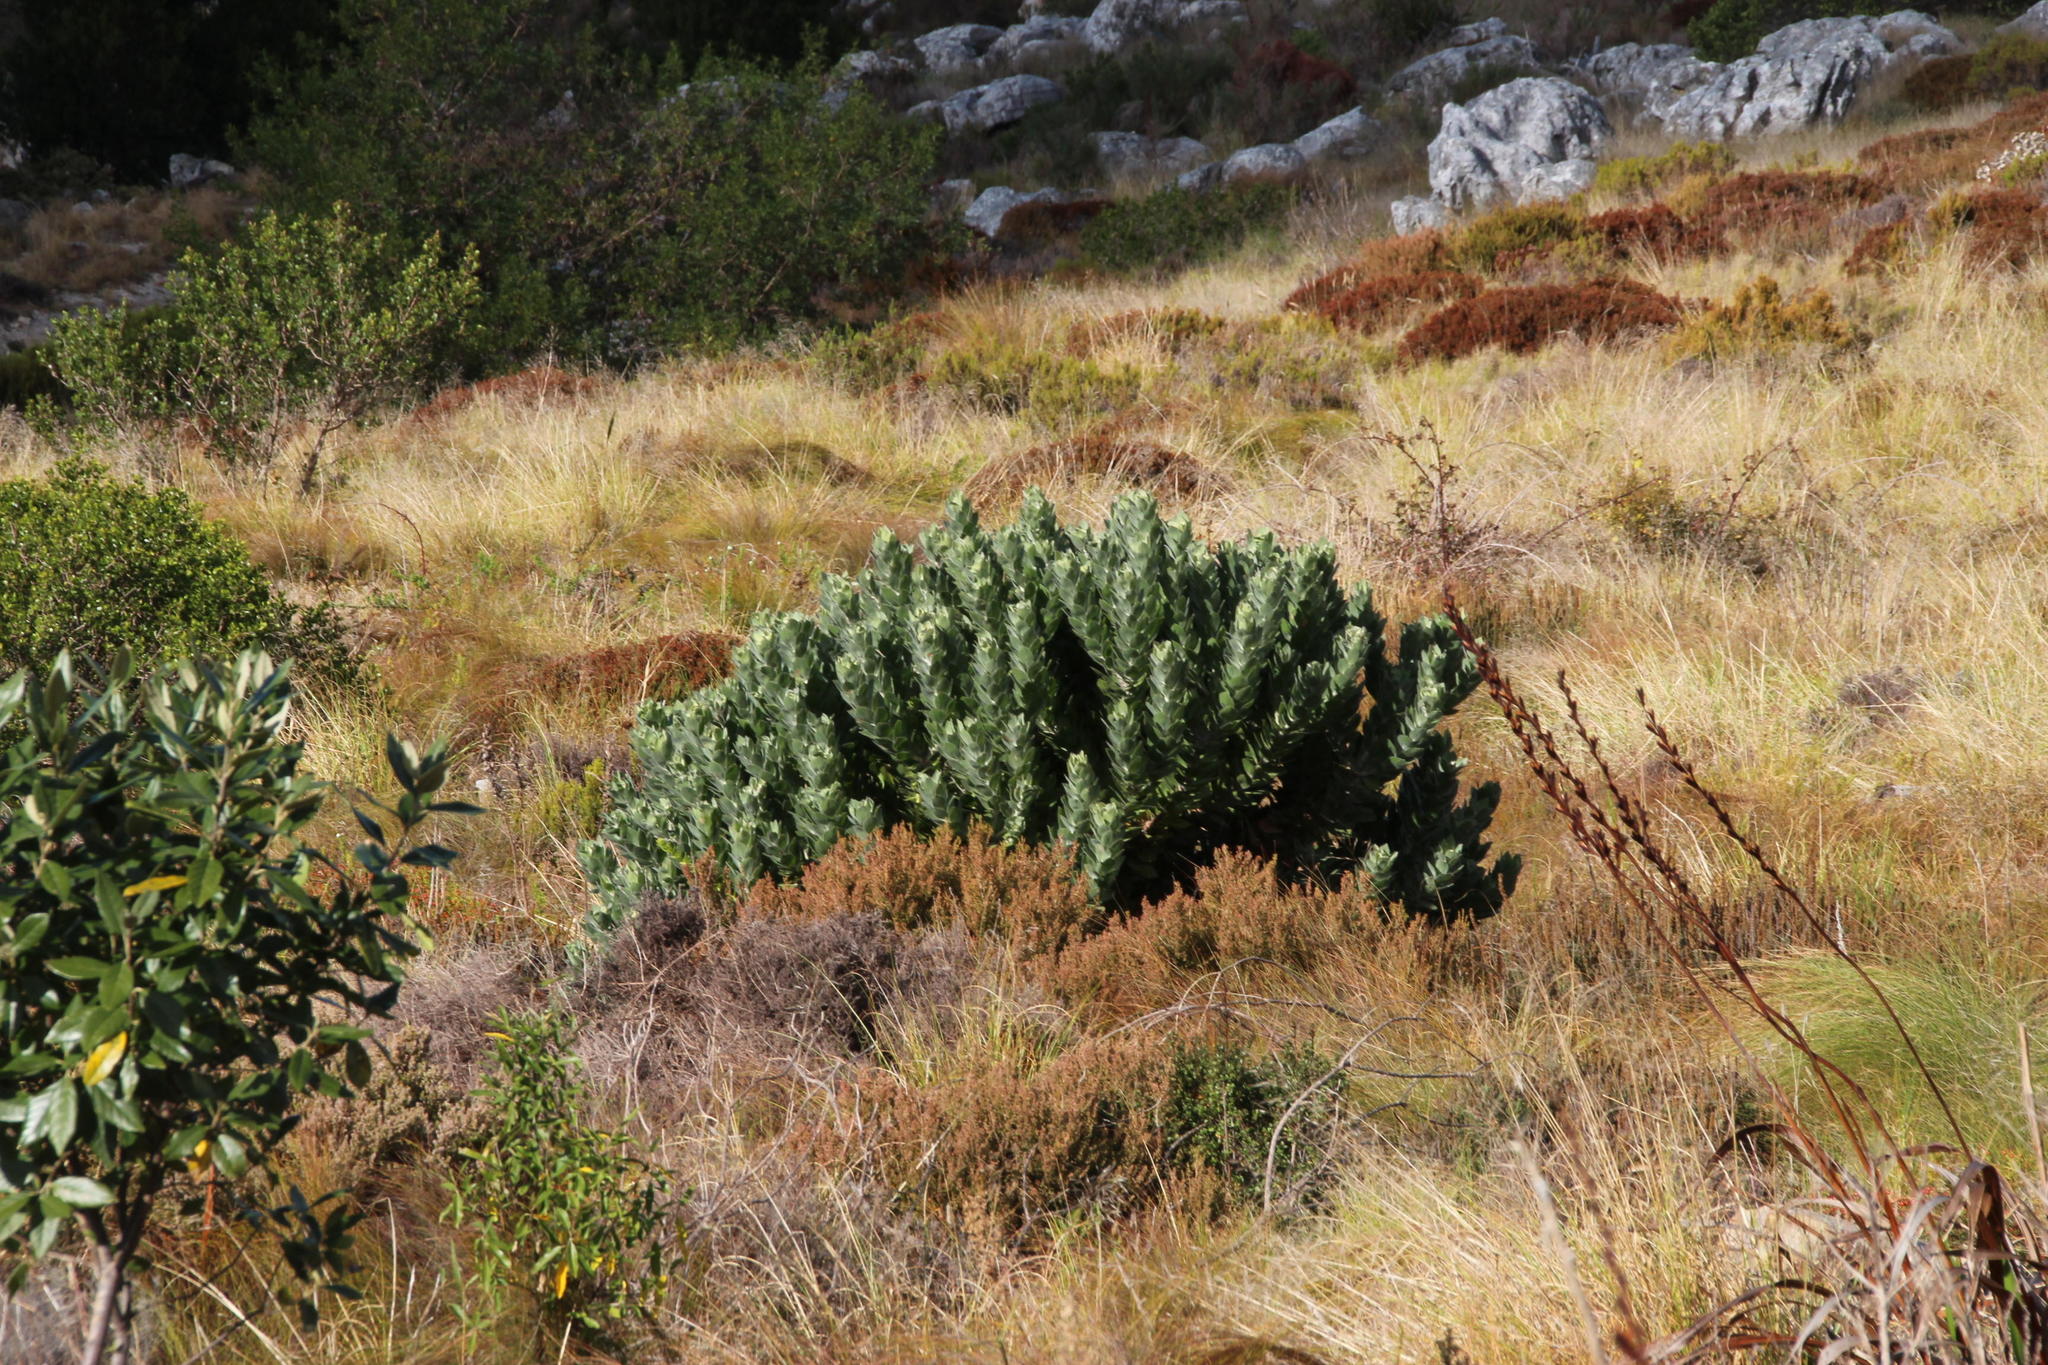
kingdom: Plantae
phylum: Tracheophyta
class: Magnoliopsida
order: Proteales
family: Proteaceae
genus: Leucospermum
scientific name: Leucospermum conocarpodendron
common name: Tree pincushion
